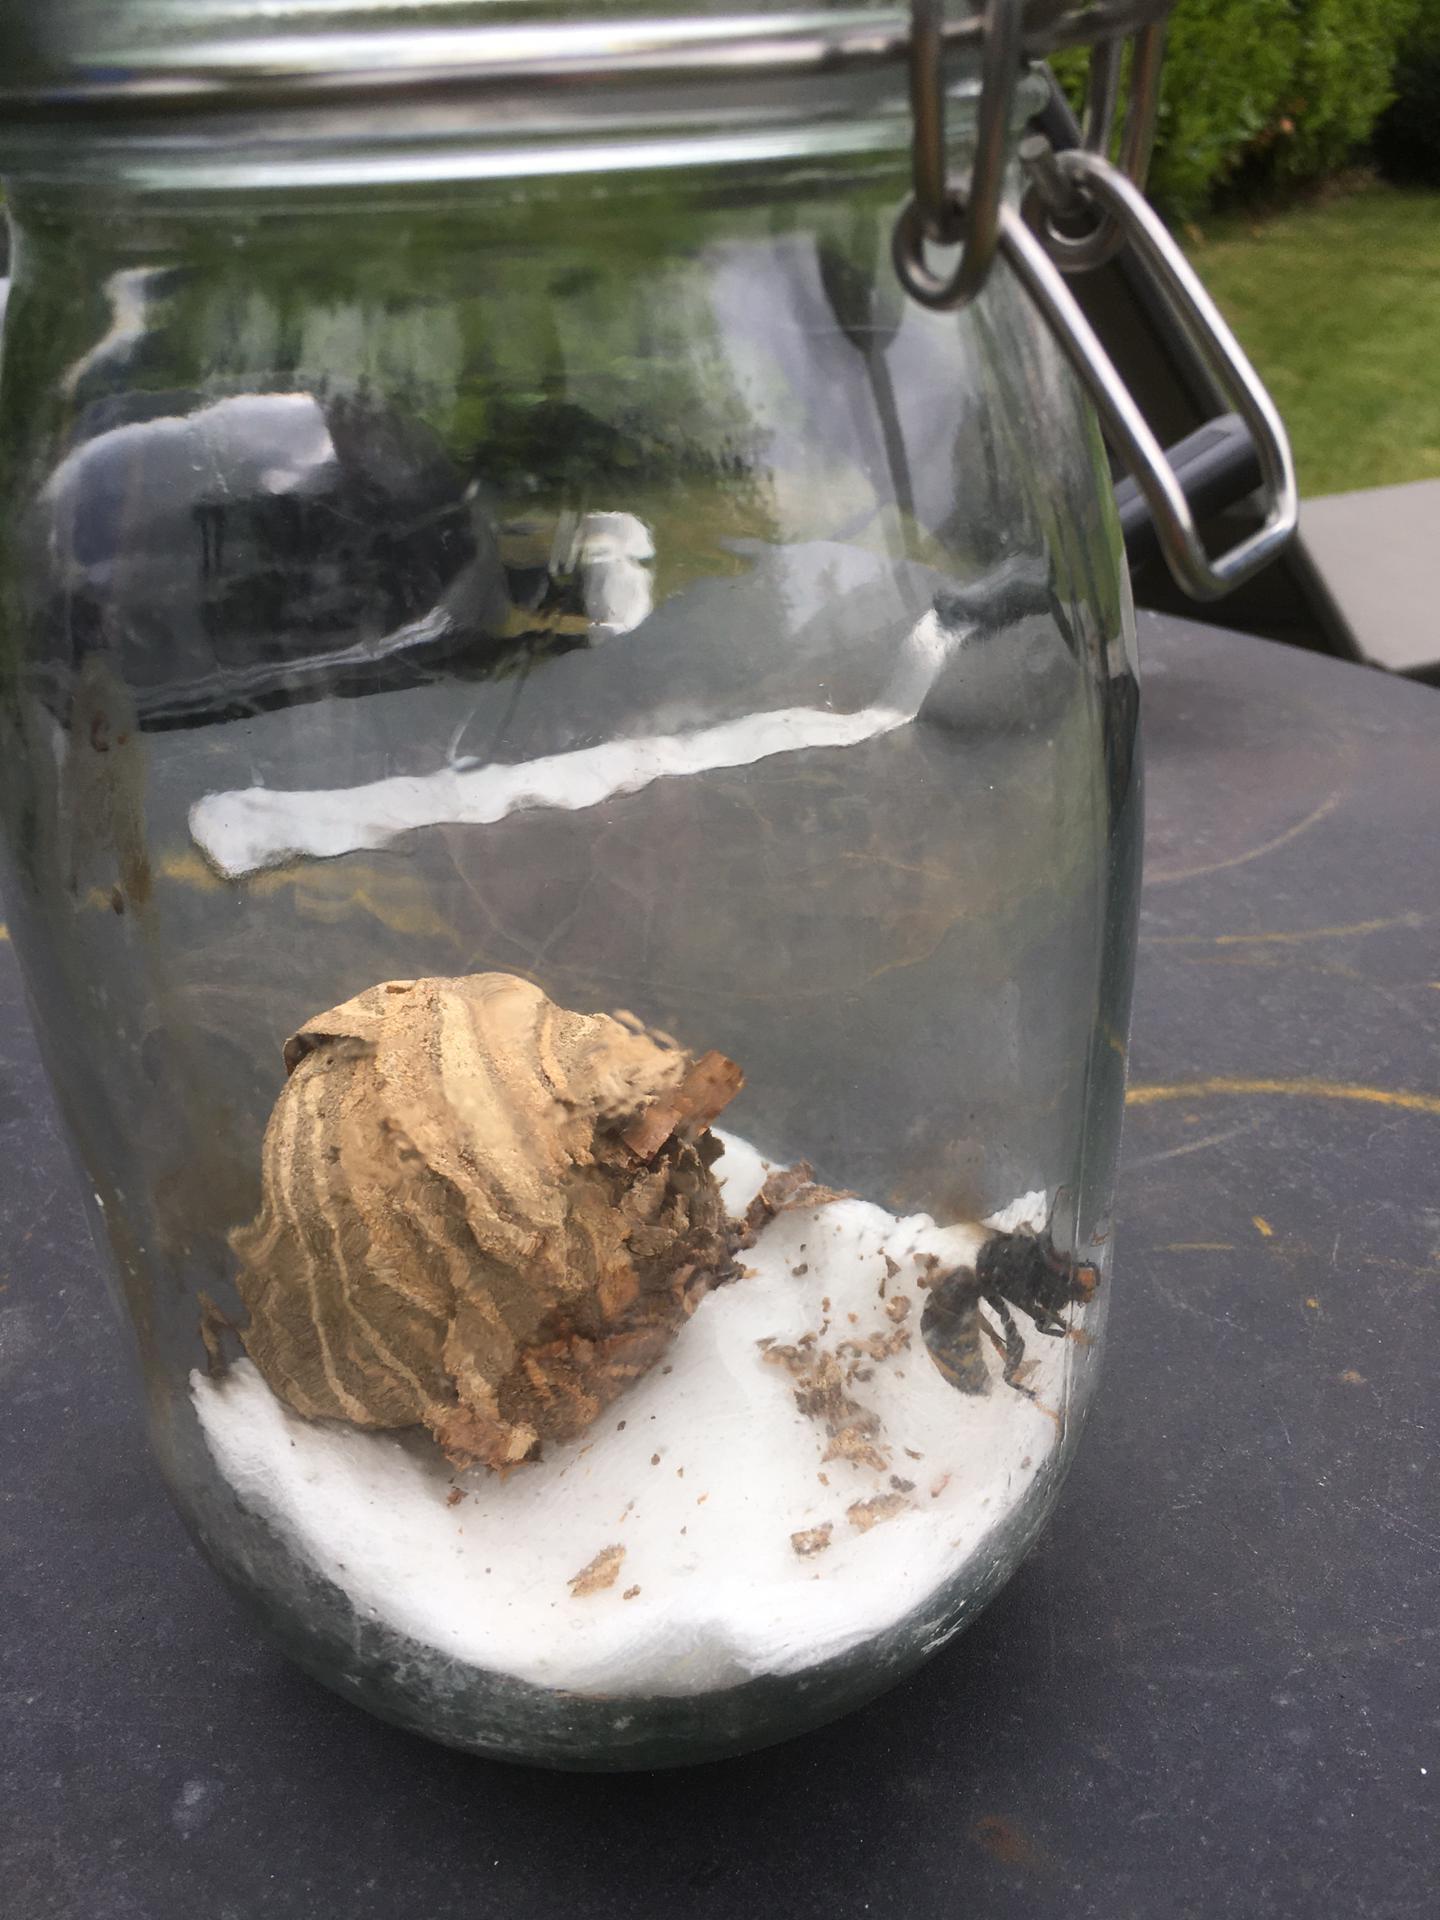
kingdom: Animalia
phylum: Arthropoda
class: Insecta
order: Hymenoptera
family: Vespidae
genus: Vespa
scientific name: Vespa velutina
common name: Asian hornet
